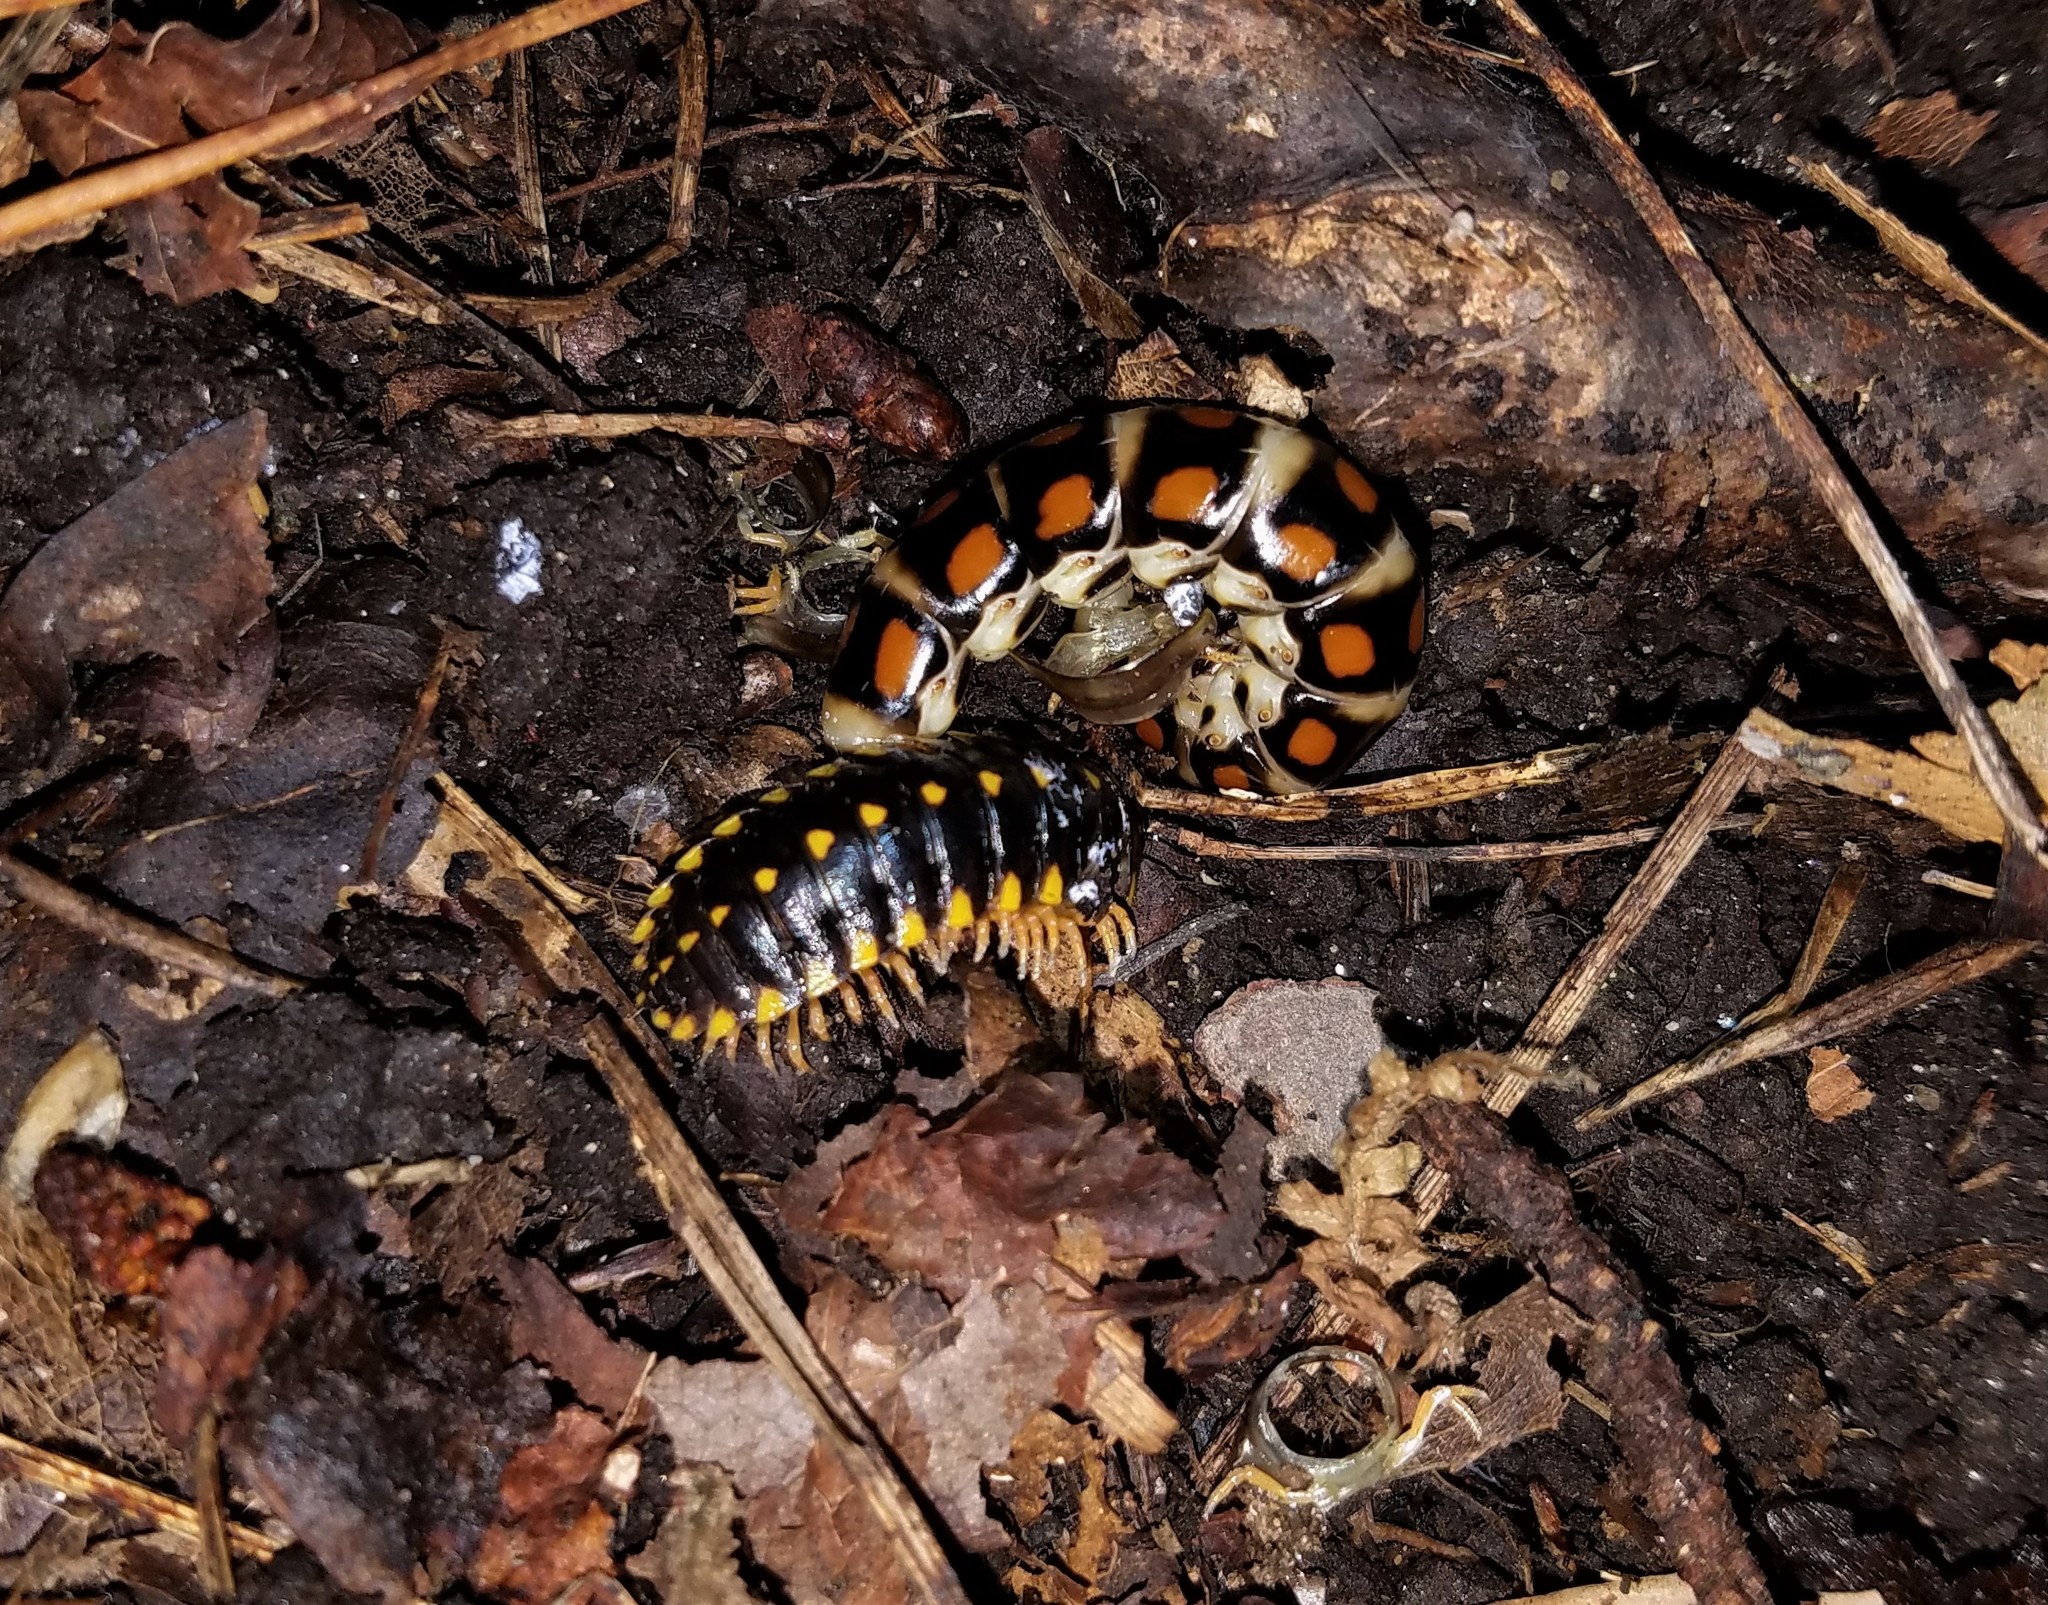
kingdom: Animalia
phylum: Arthropoda
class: Diplopoda
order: Polydesmida
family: Xystodesmidae
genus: Cherokia
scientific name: Cherokia georgiana
